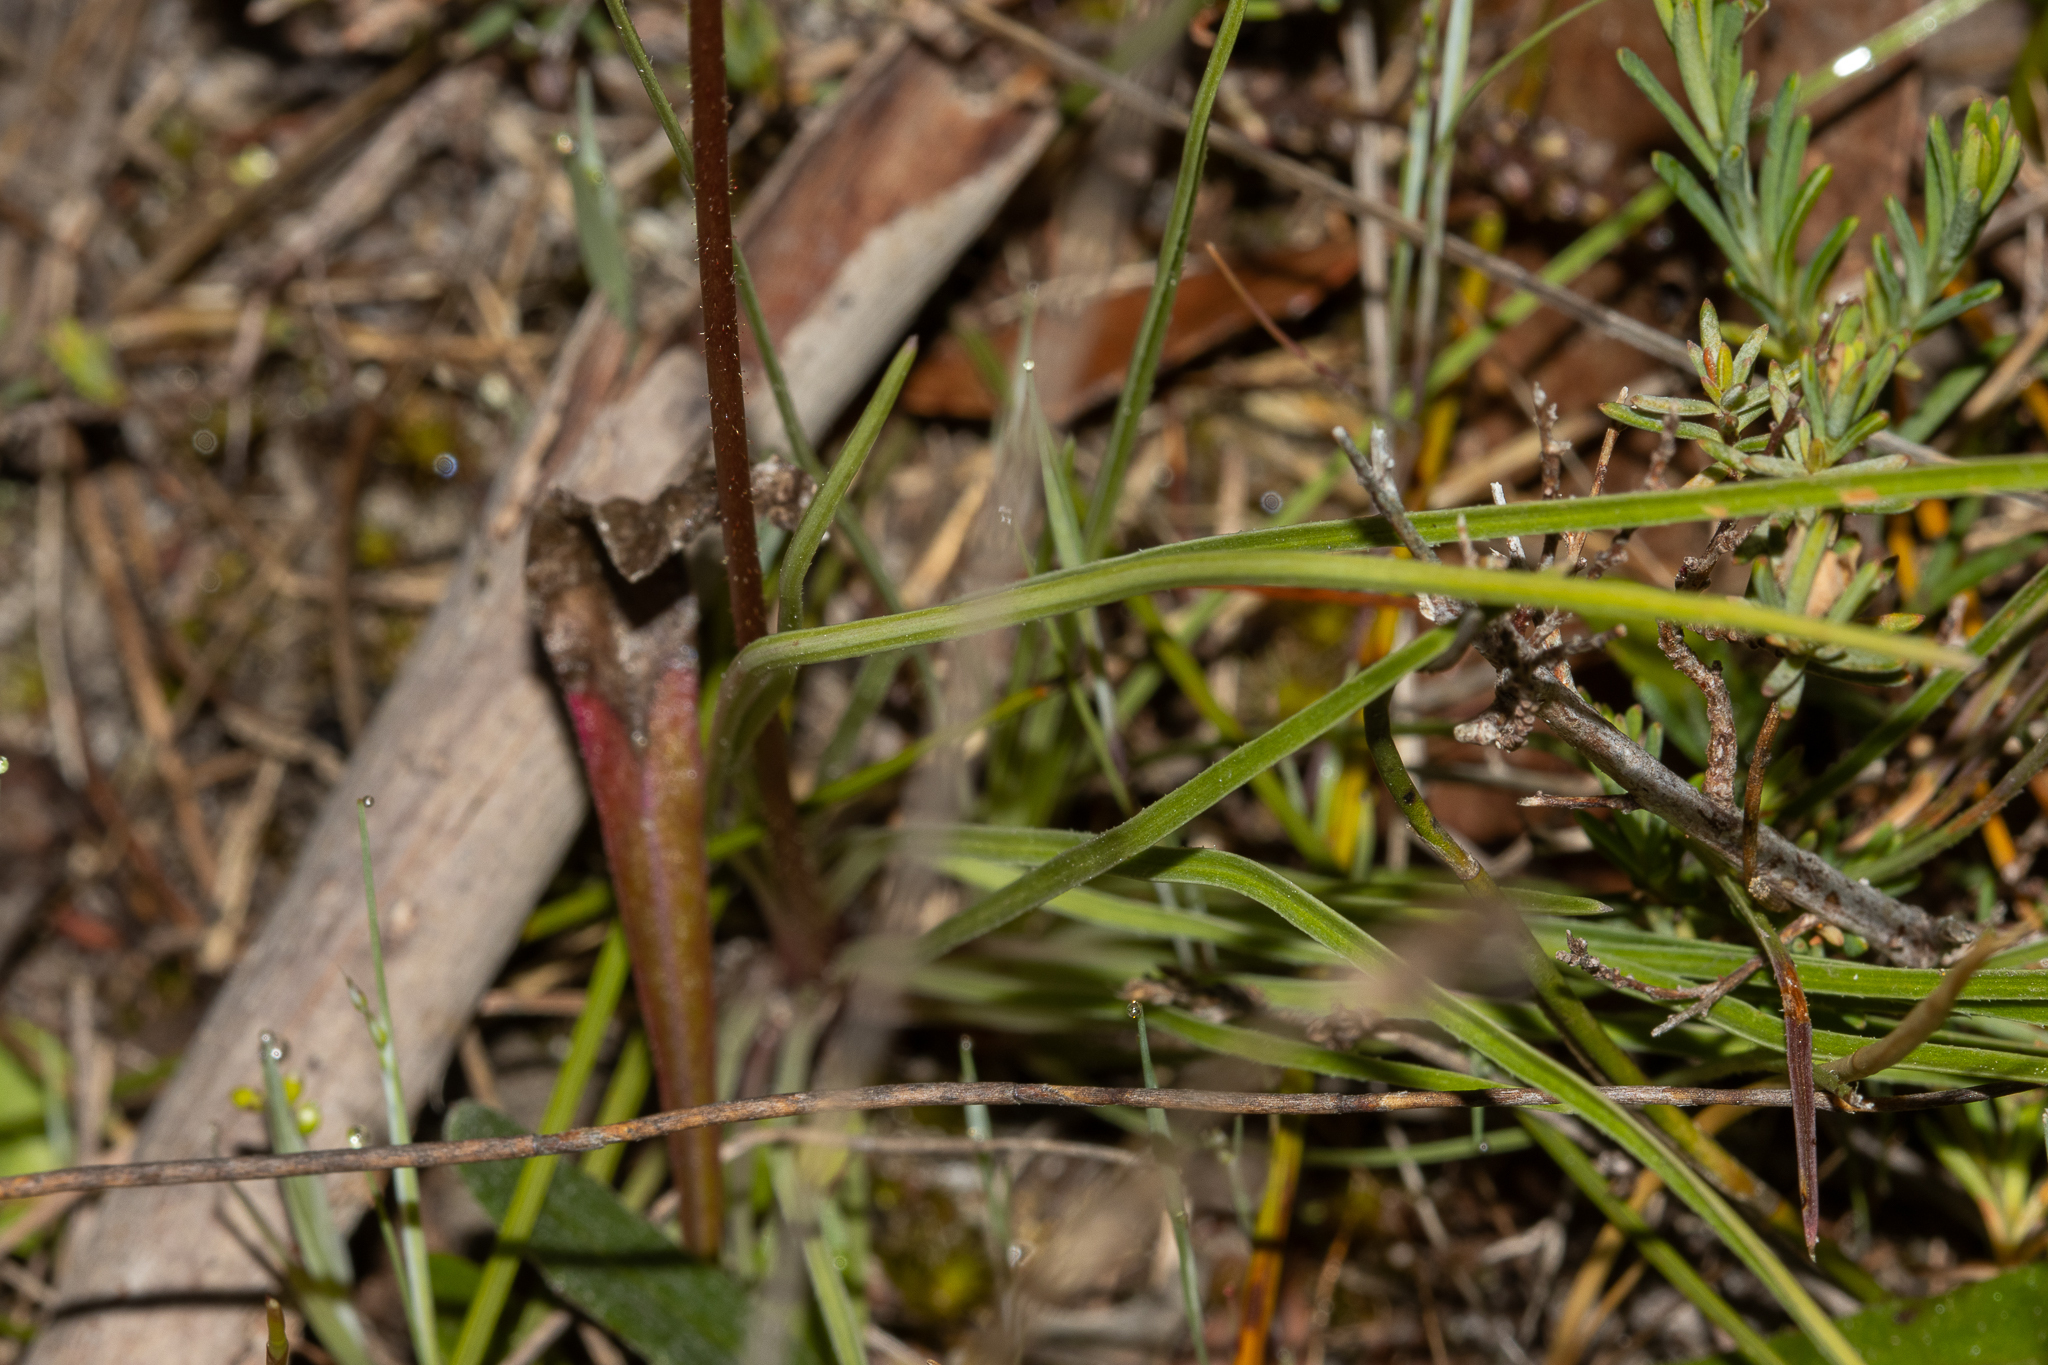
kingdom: Plantae
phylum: Tracheophyta
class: Magnoliopsida
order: Asterales
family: Stylidiaceae
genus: Stylidium
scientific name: Stylidium graminifolium
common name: Grass triggerplant
